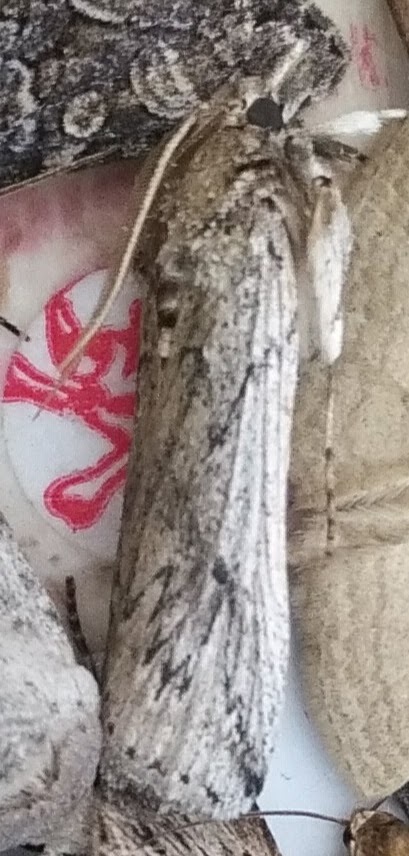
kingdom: Animalia
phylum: Arthropoda
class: Insecta
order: Lepidoptera
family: Pyralidae
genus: Melitara
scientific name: Melitara dentata
